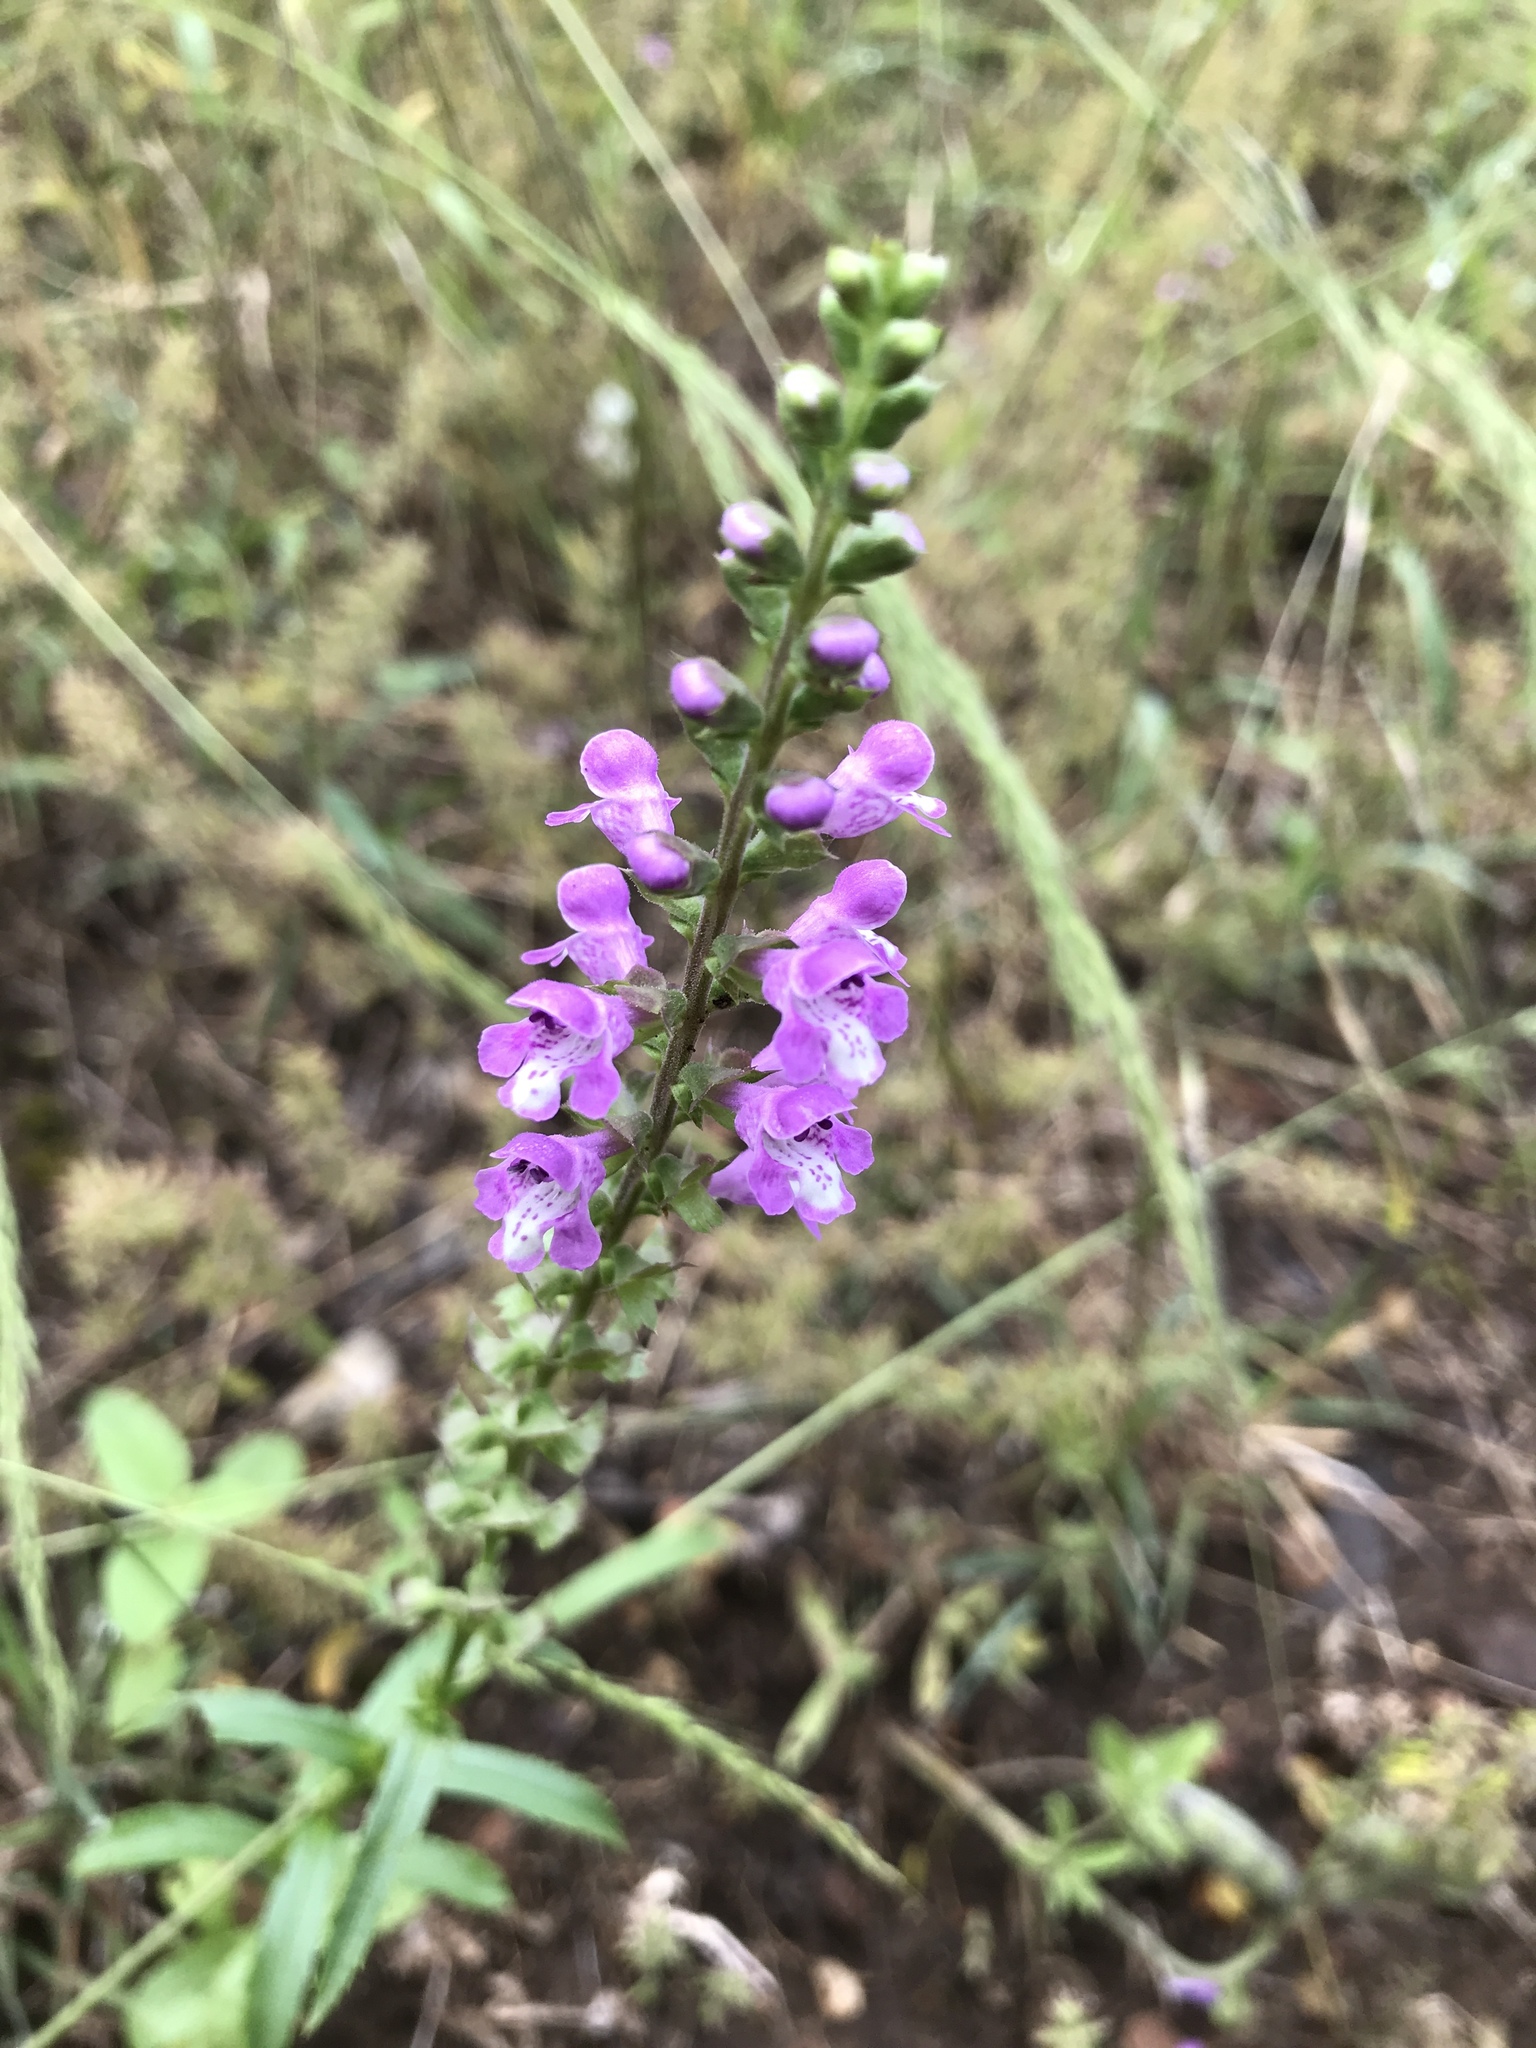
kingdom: Plantae
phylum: Tracheophyta
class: Magnoliopsida
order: Lamiales
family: Lamiaceae
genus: Warnockia
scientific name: Warnockia scutellarioides
